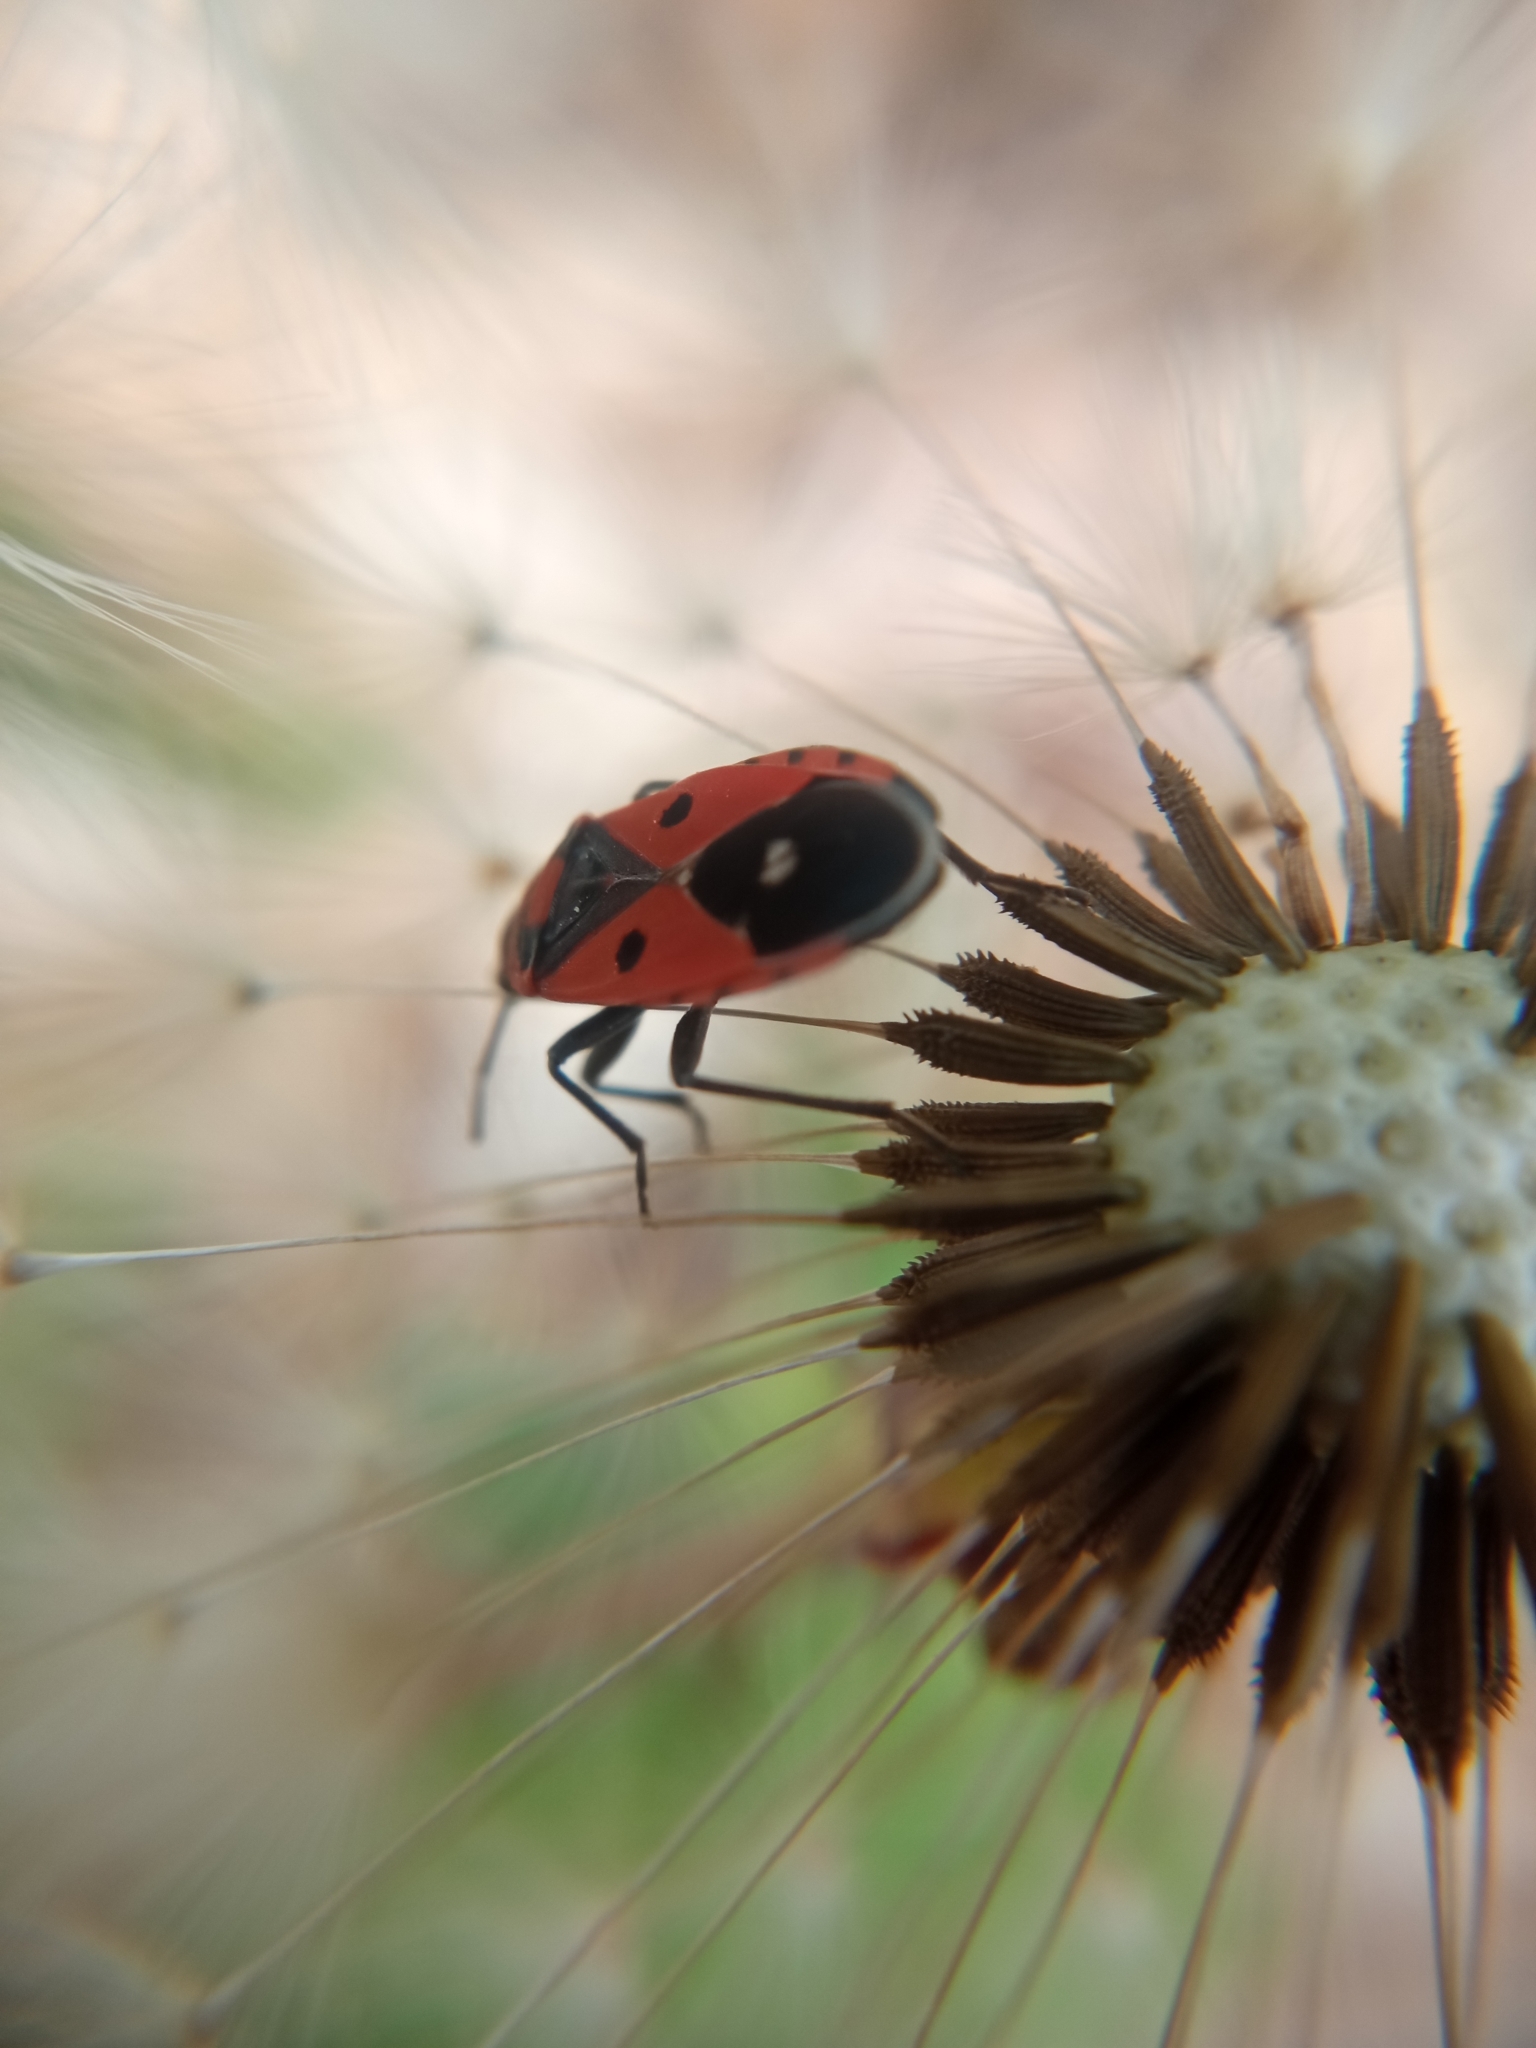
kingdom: Animalia
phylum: Arthropoda
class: Insecta
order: Hemiptera
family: Lygaeidae
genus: Melanocoryphus
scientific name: Melanocoryphus albomaculatus
